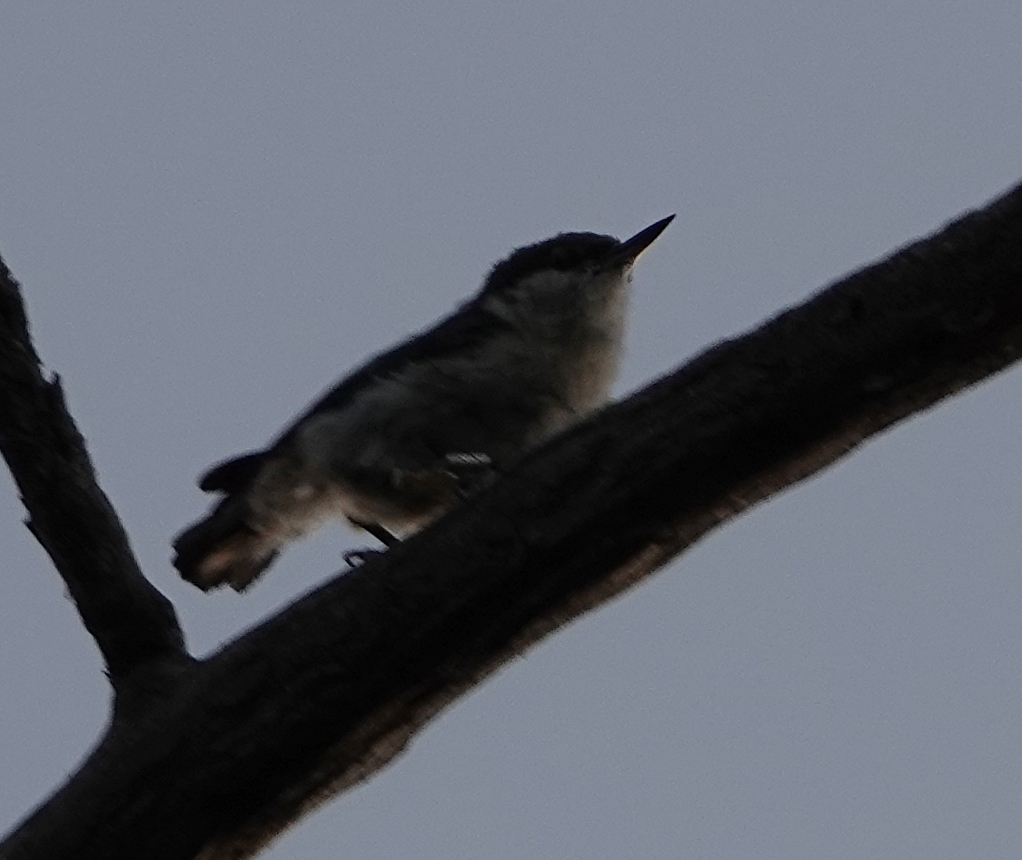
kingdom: Animalia
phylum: Chordata
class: Aves
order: Passeriformes
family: Sittidae
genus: Sitta
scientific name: Sitta pygmaea
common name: Pygmy nuthatch
